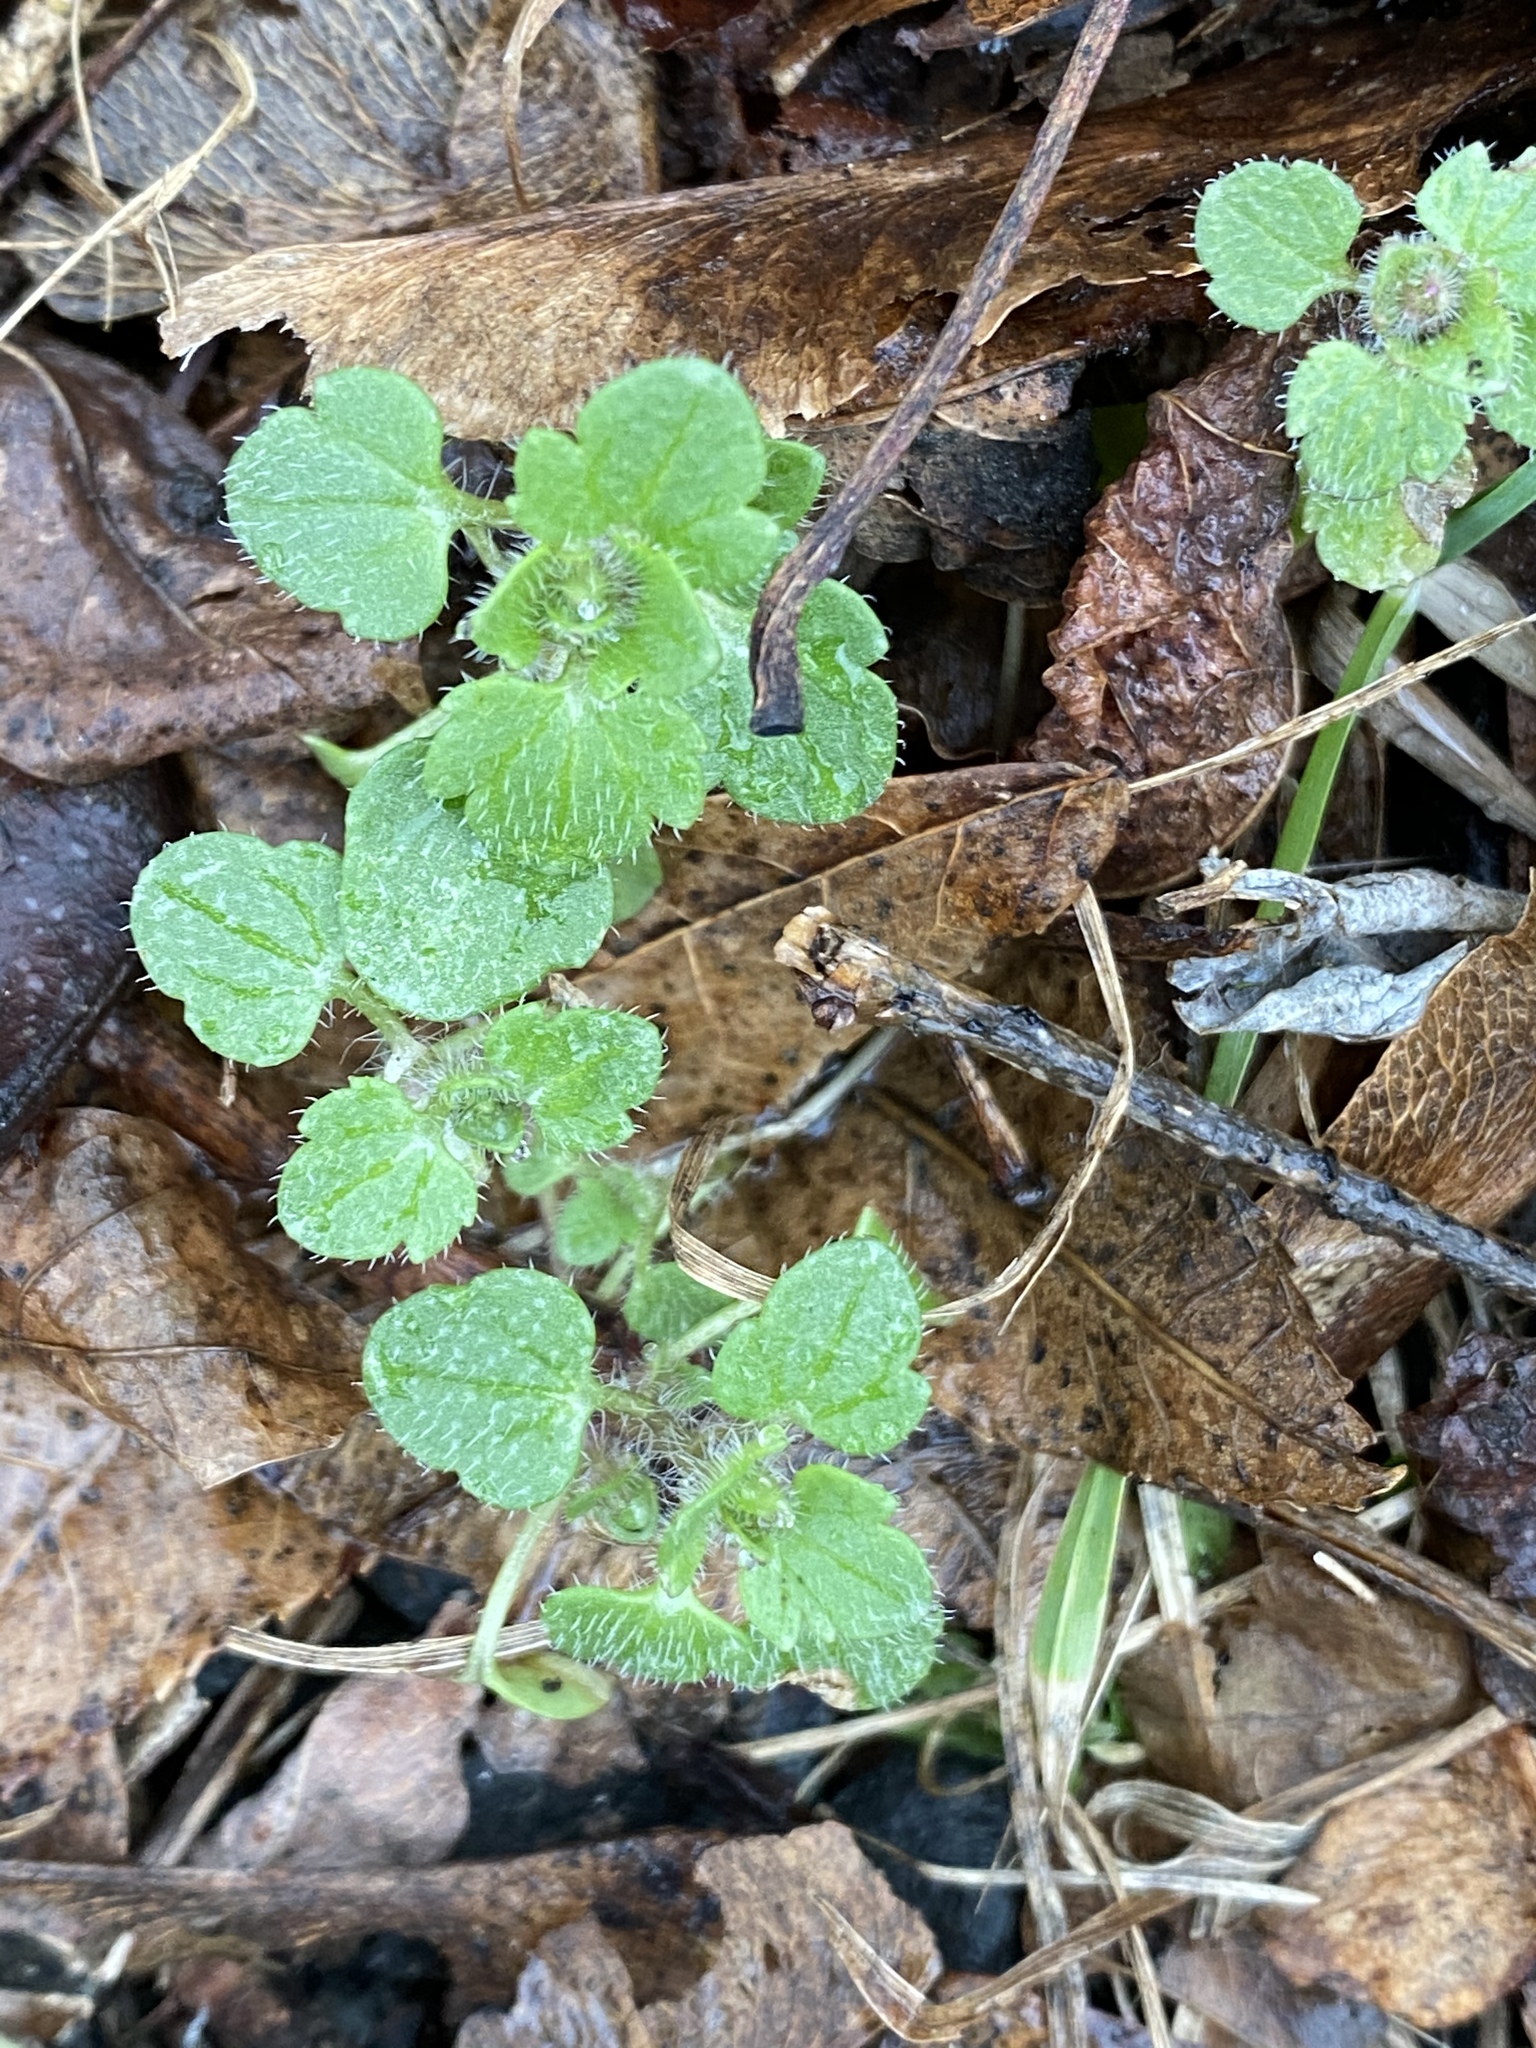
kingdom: Plantae
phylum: Tracheophyta
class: Magnoliopsida
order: Lamiales
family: Plantaginaceae
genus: Veronica
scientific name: Veronica hederifolia
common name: Ivy-leaved speedwell
